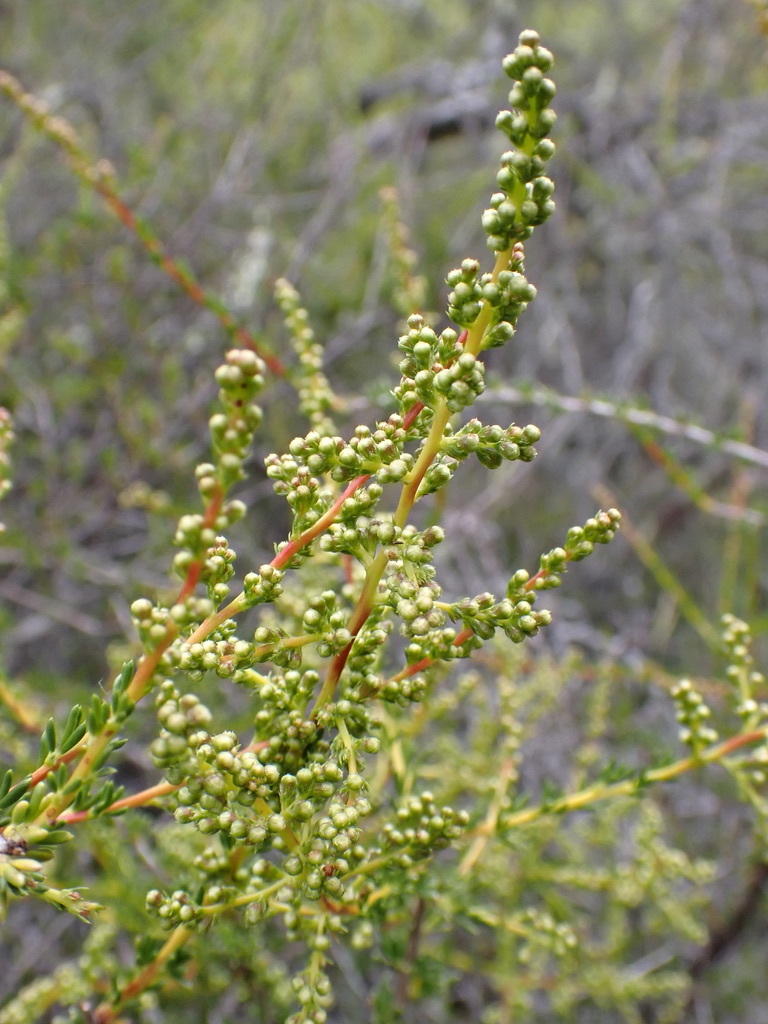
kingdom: Plantae
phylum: Tracheophyta
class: Magnoliopsida
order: Rosales
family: Rosaceae
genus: Adenostoma
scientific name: Adenostoma fasciculatum
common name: Chamise
